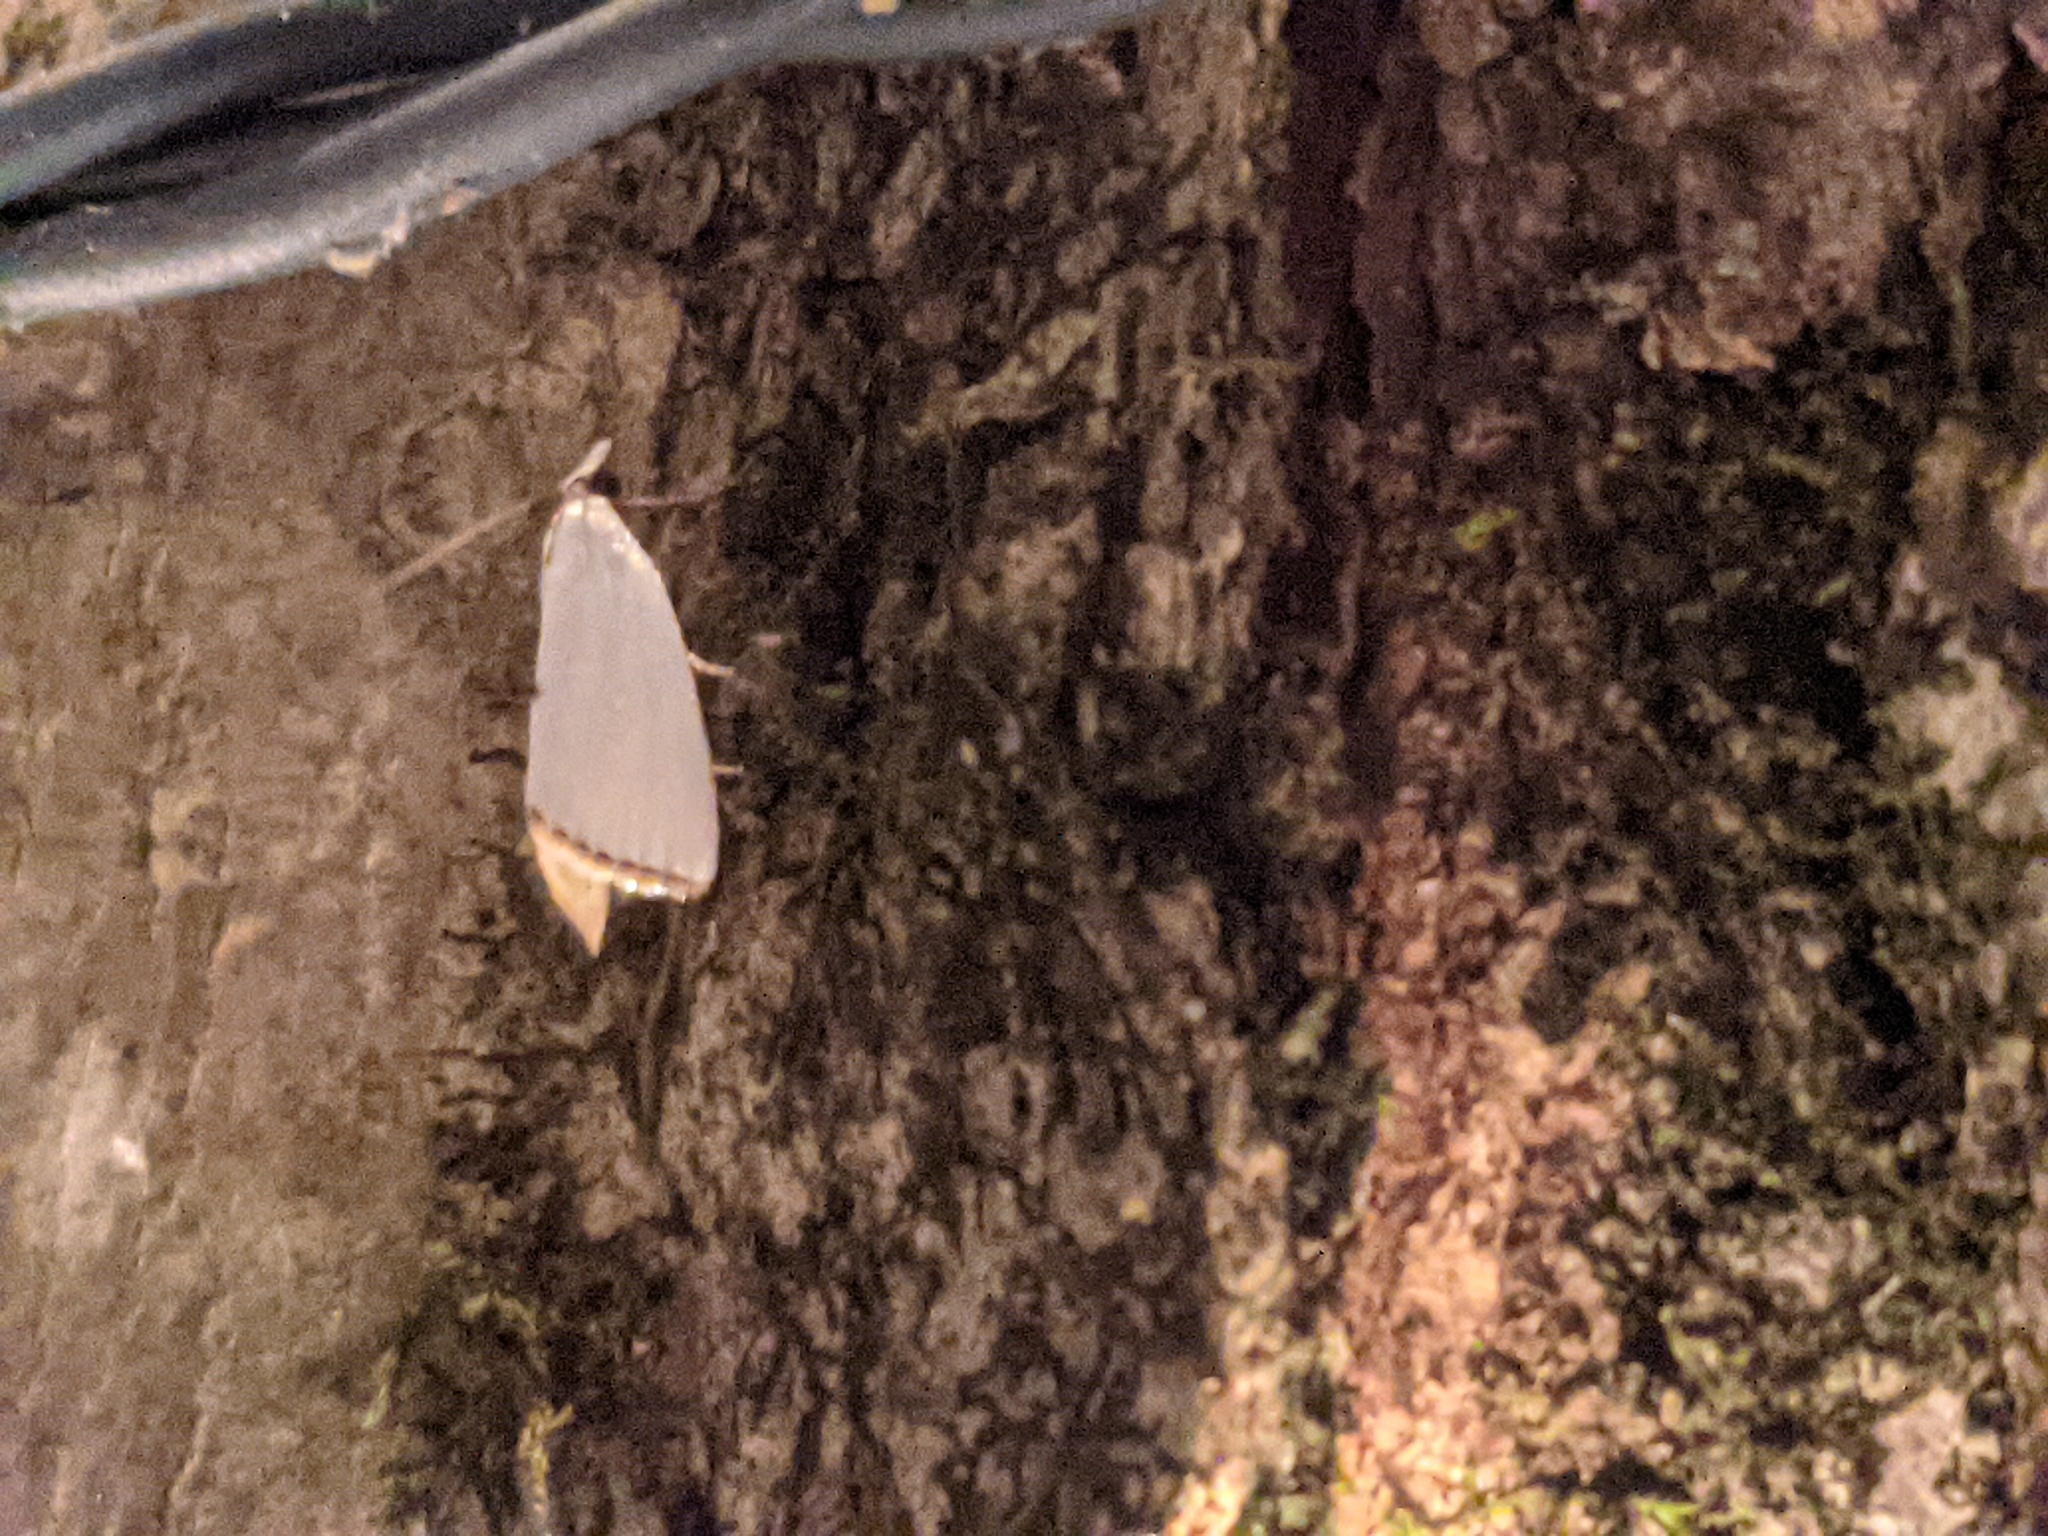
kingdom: Animalia
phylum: Arthropoda
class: Insecta
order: Lepidoptera
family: Crambidae
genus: Argyria
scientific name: Argyria nivalis
